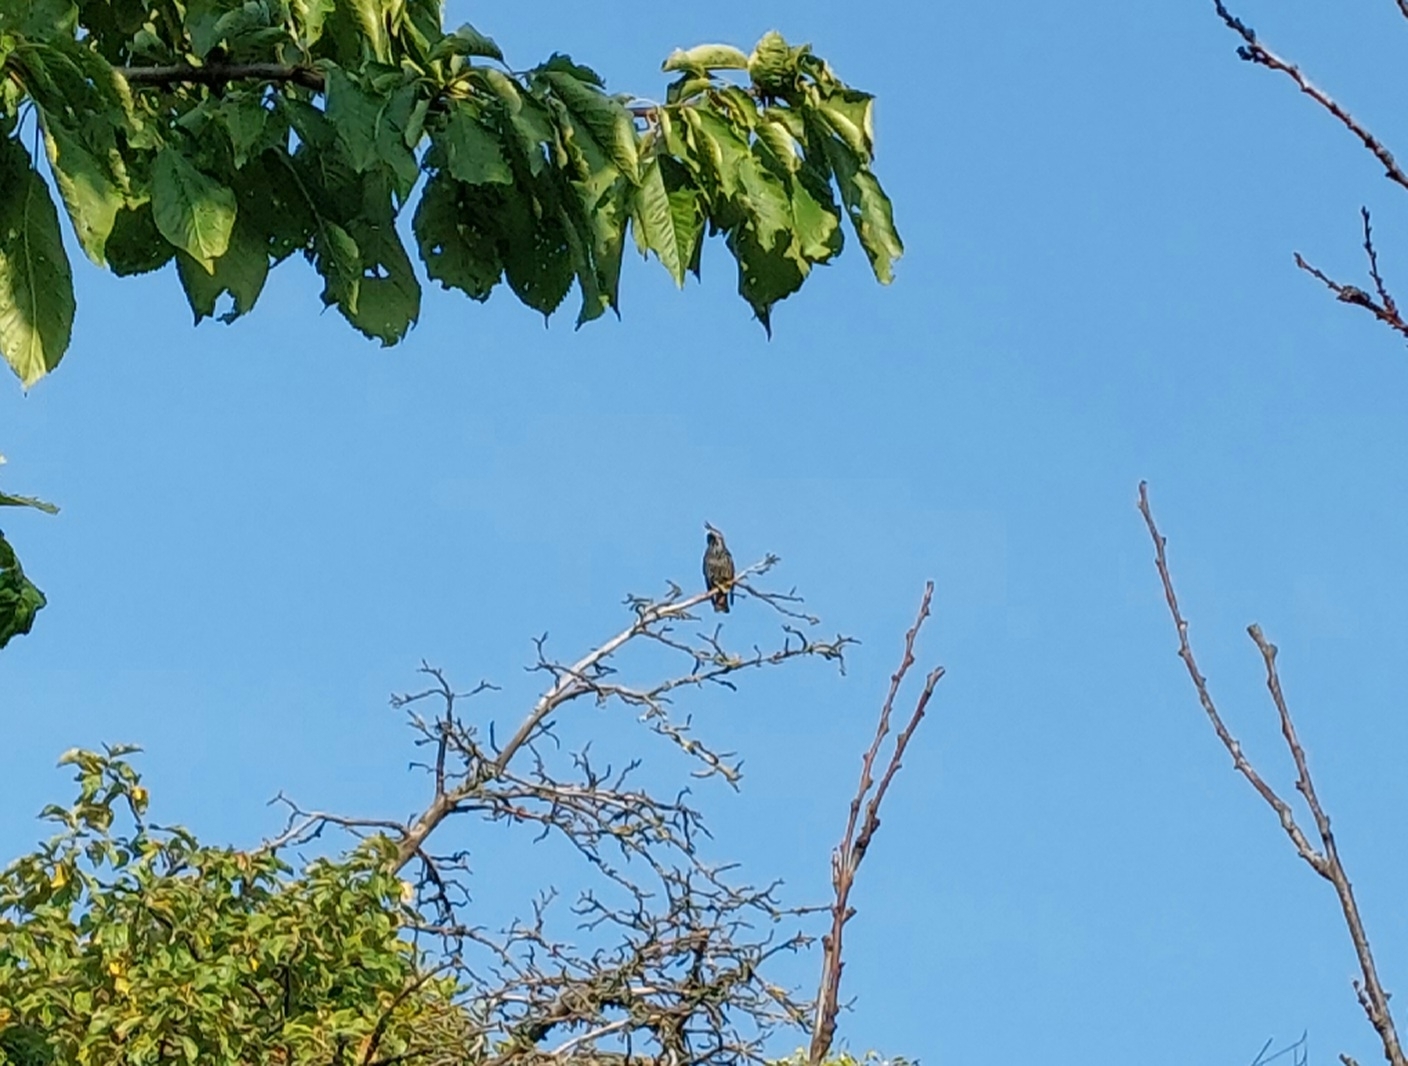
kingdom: Animalia
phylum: Chordata
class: Aves
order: Passeriformes
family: Sturnidae
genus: Sturnus
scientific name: Sturnus vulgaris
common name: Common starling
